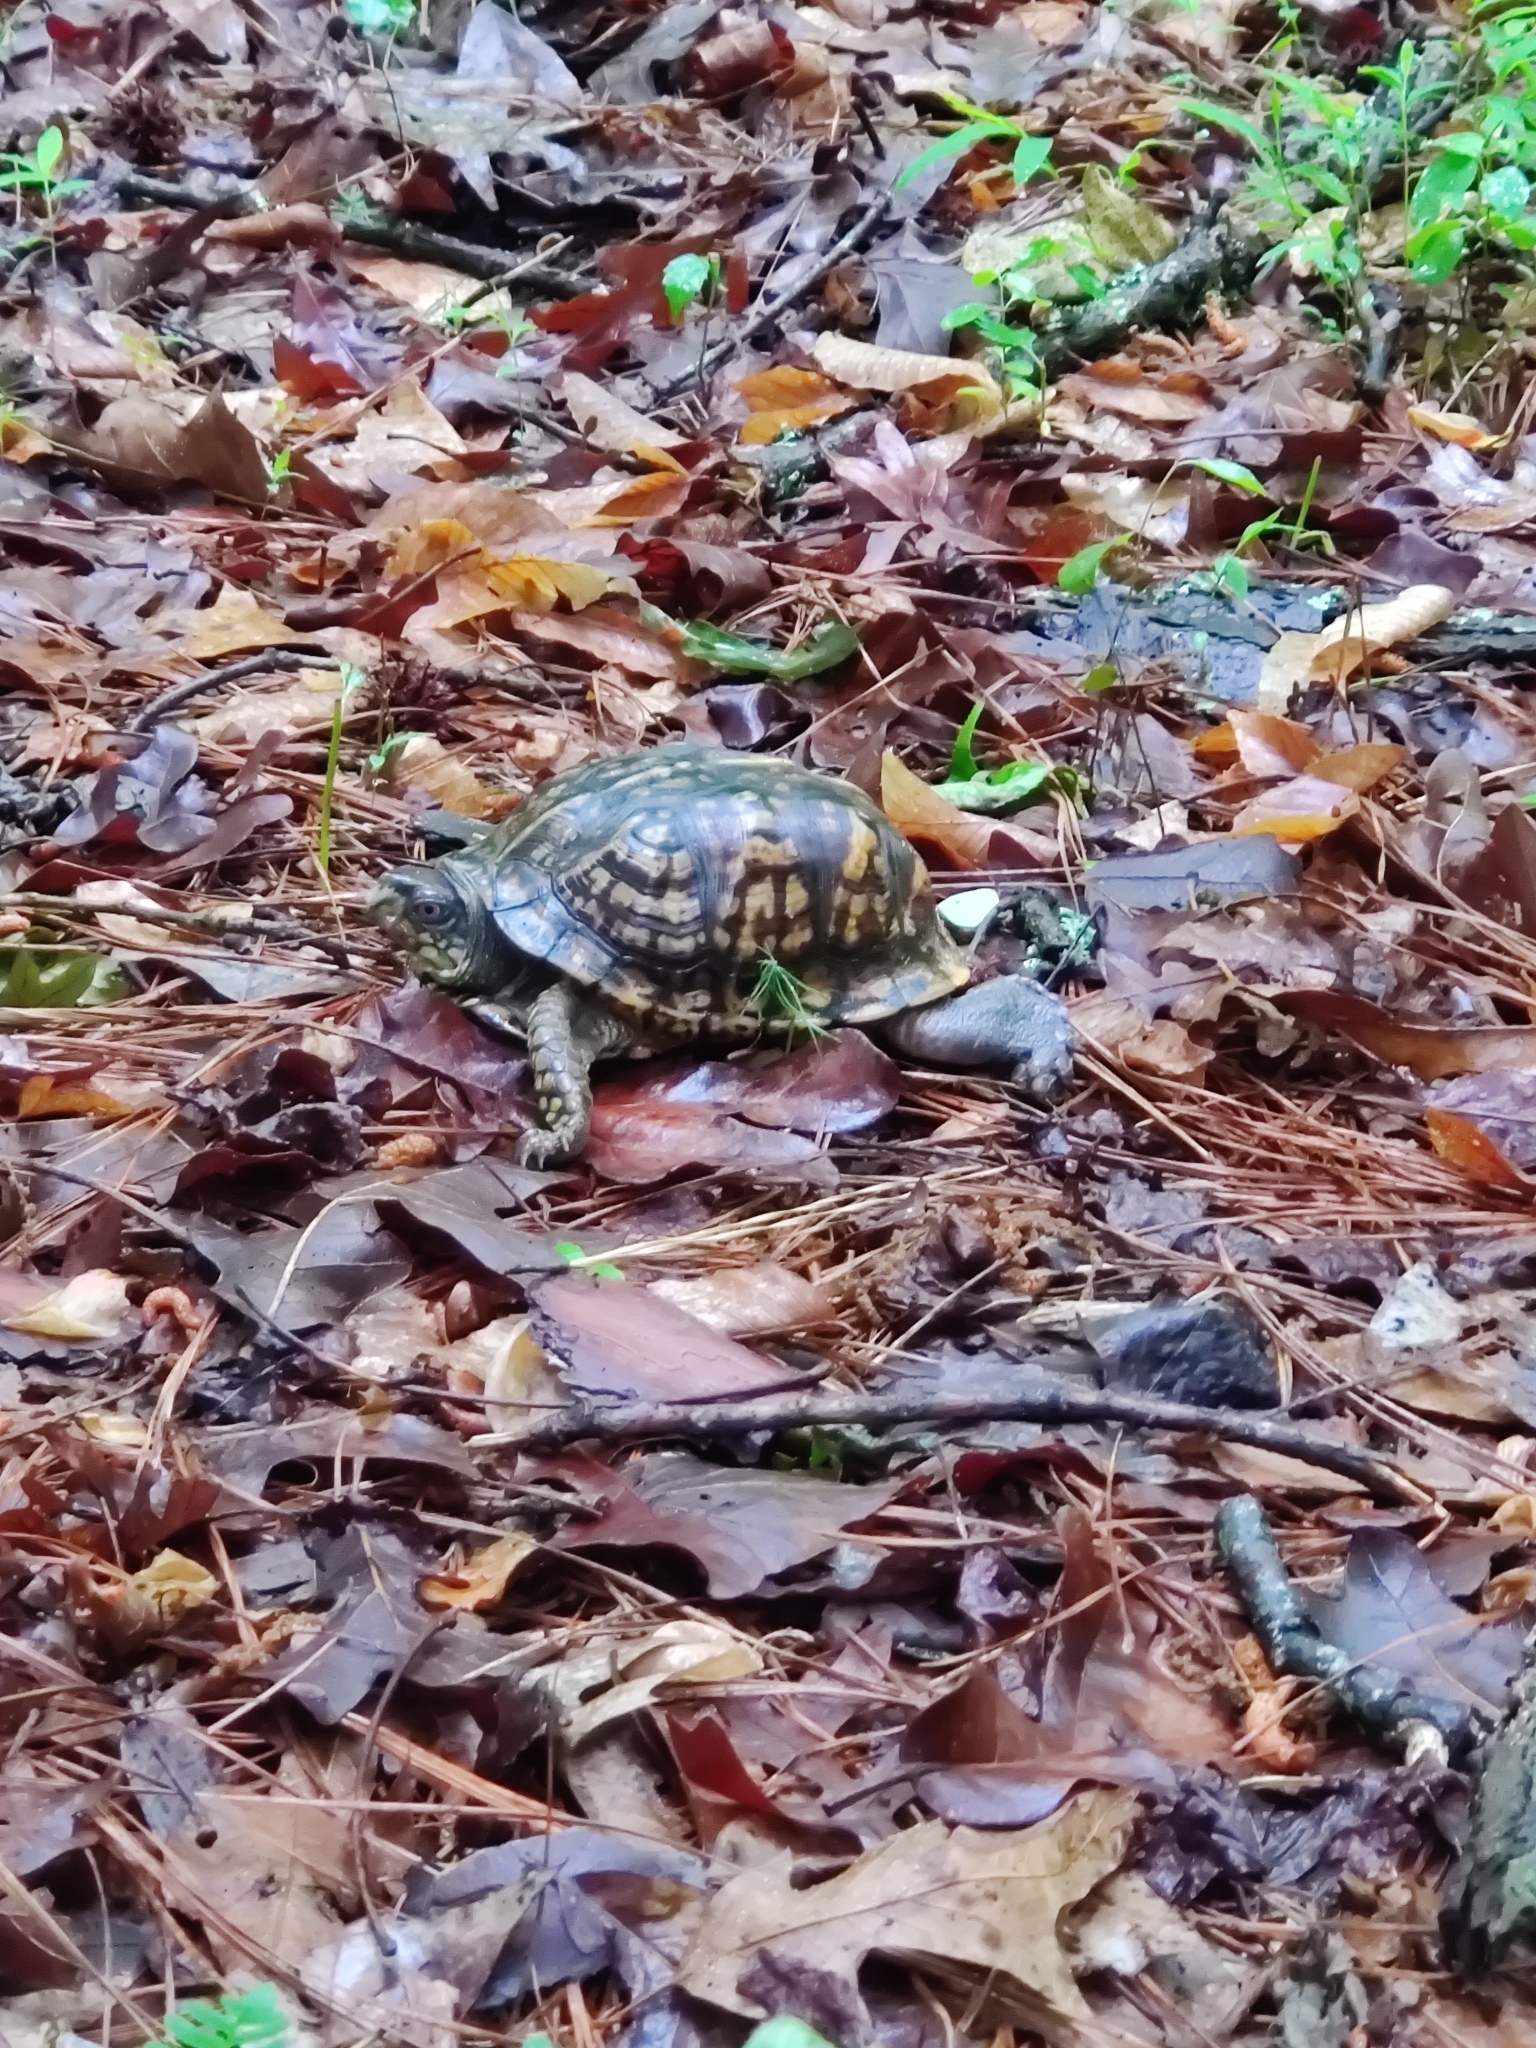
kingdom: Animalia
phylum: Chordata
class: Testudines
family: Emydidae
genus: Terrapene
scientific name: Terrapene carolina
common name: Common box turtle
